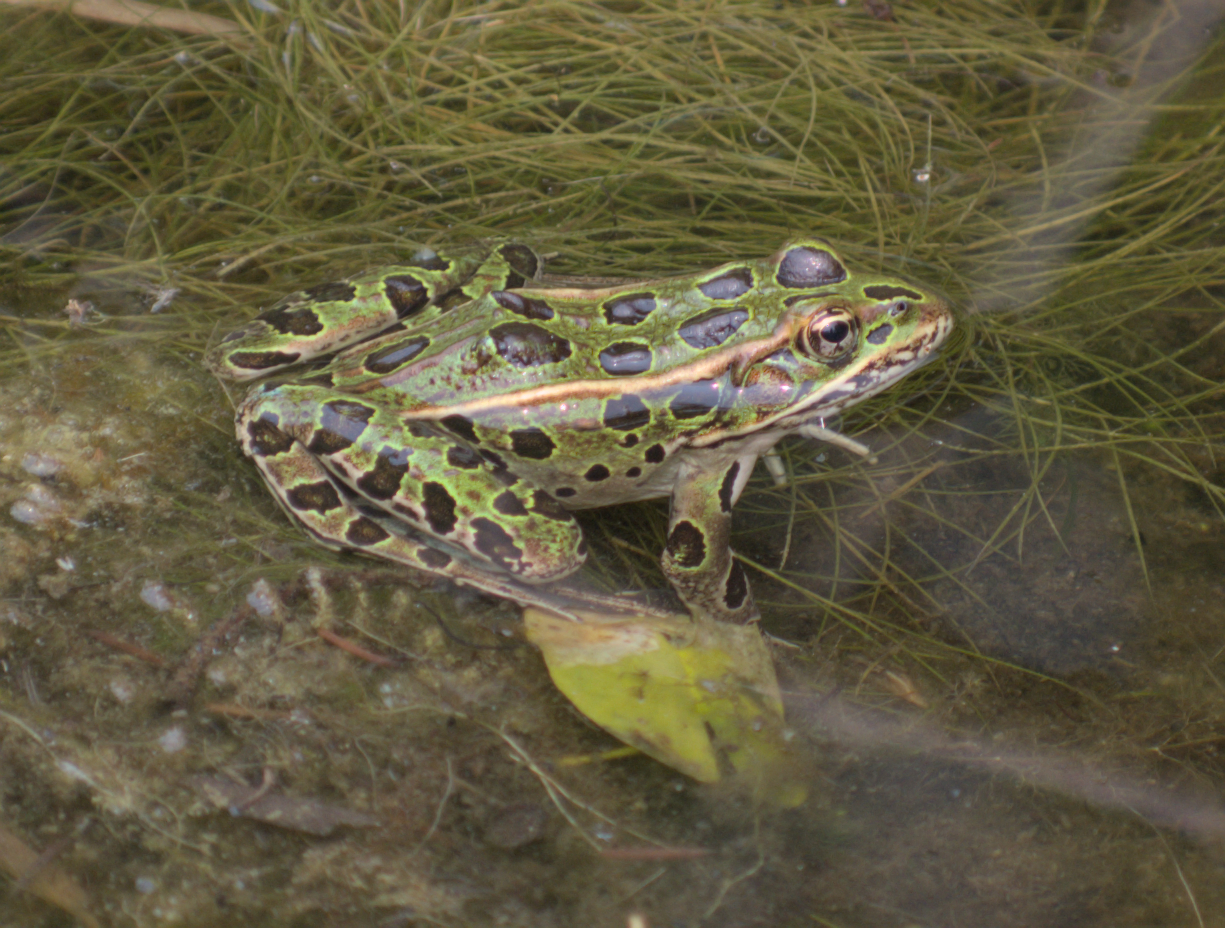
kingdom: Animalia
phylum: Chordata
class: Amphibia
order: Anura
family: Ranidae
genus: Lithobates
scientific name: Lithobates pipiens
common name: Northern leopard frog
